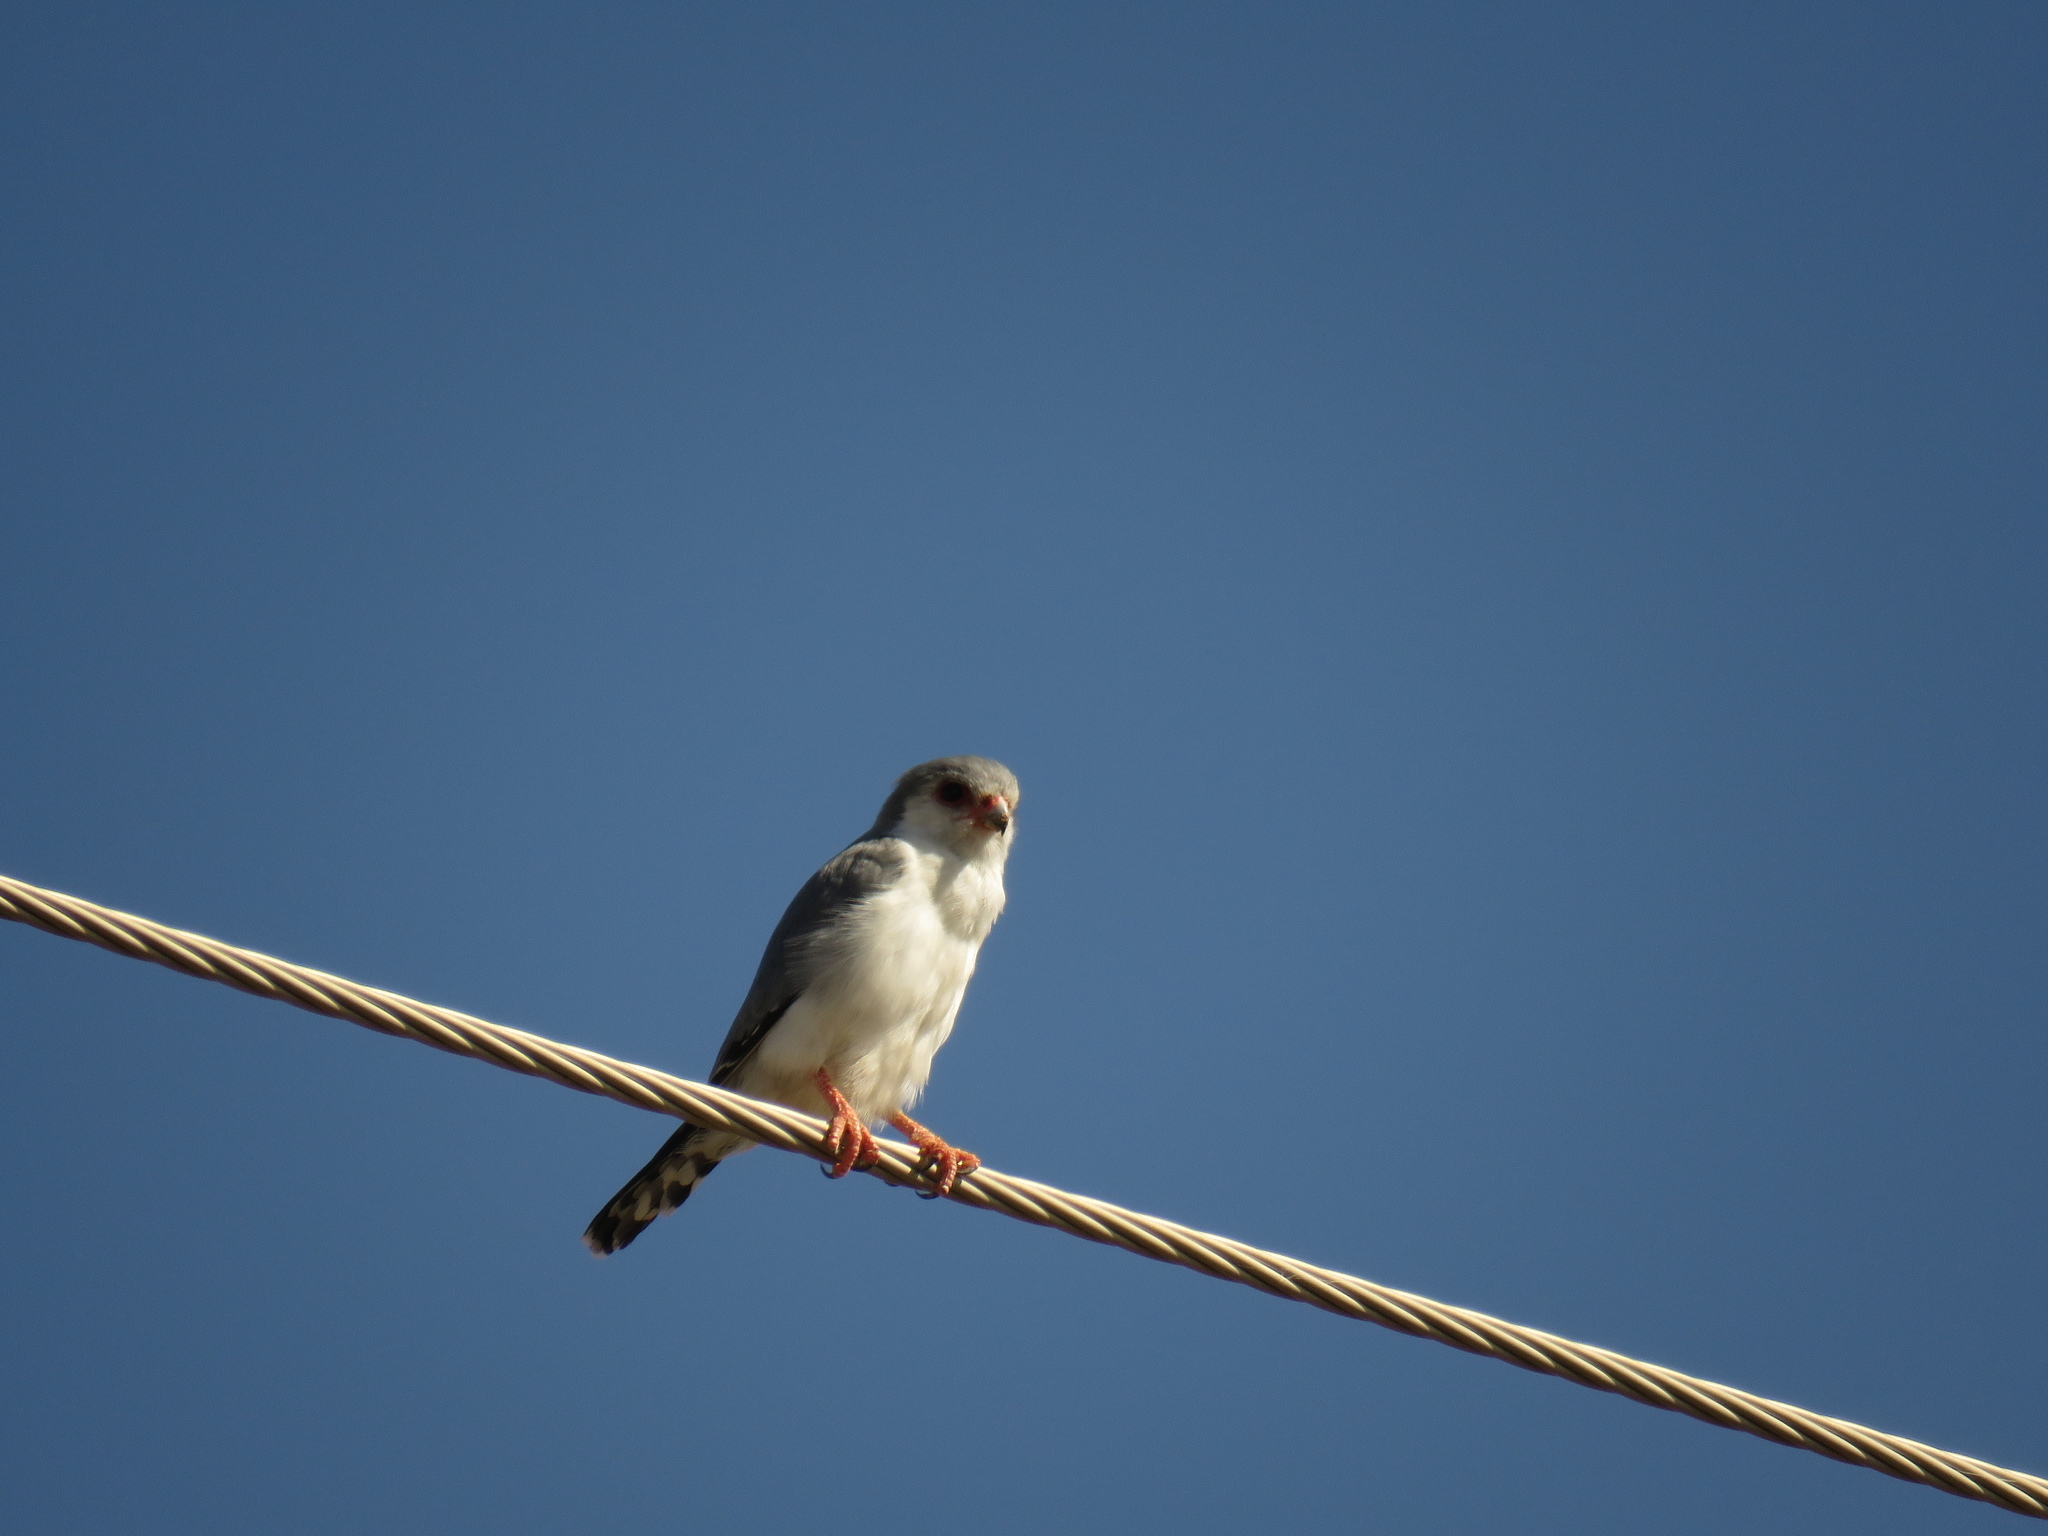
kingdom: Animalia
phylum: Chordata
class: Aves
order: Falconiformes
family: Falconidae
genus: Polihierax
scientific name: Polihierax semitorquatus
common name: Pygmy falcon
